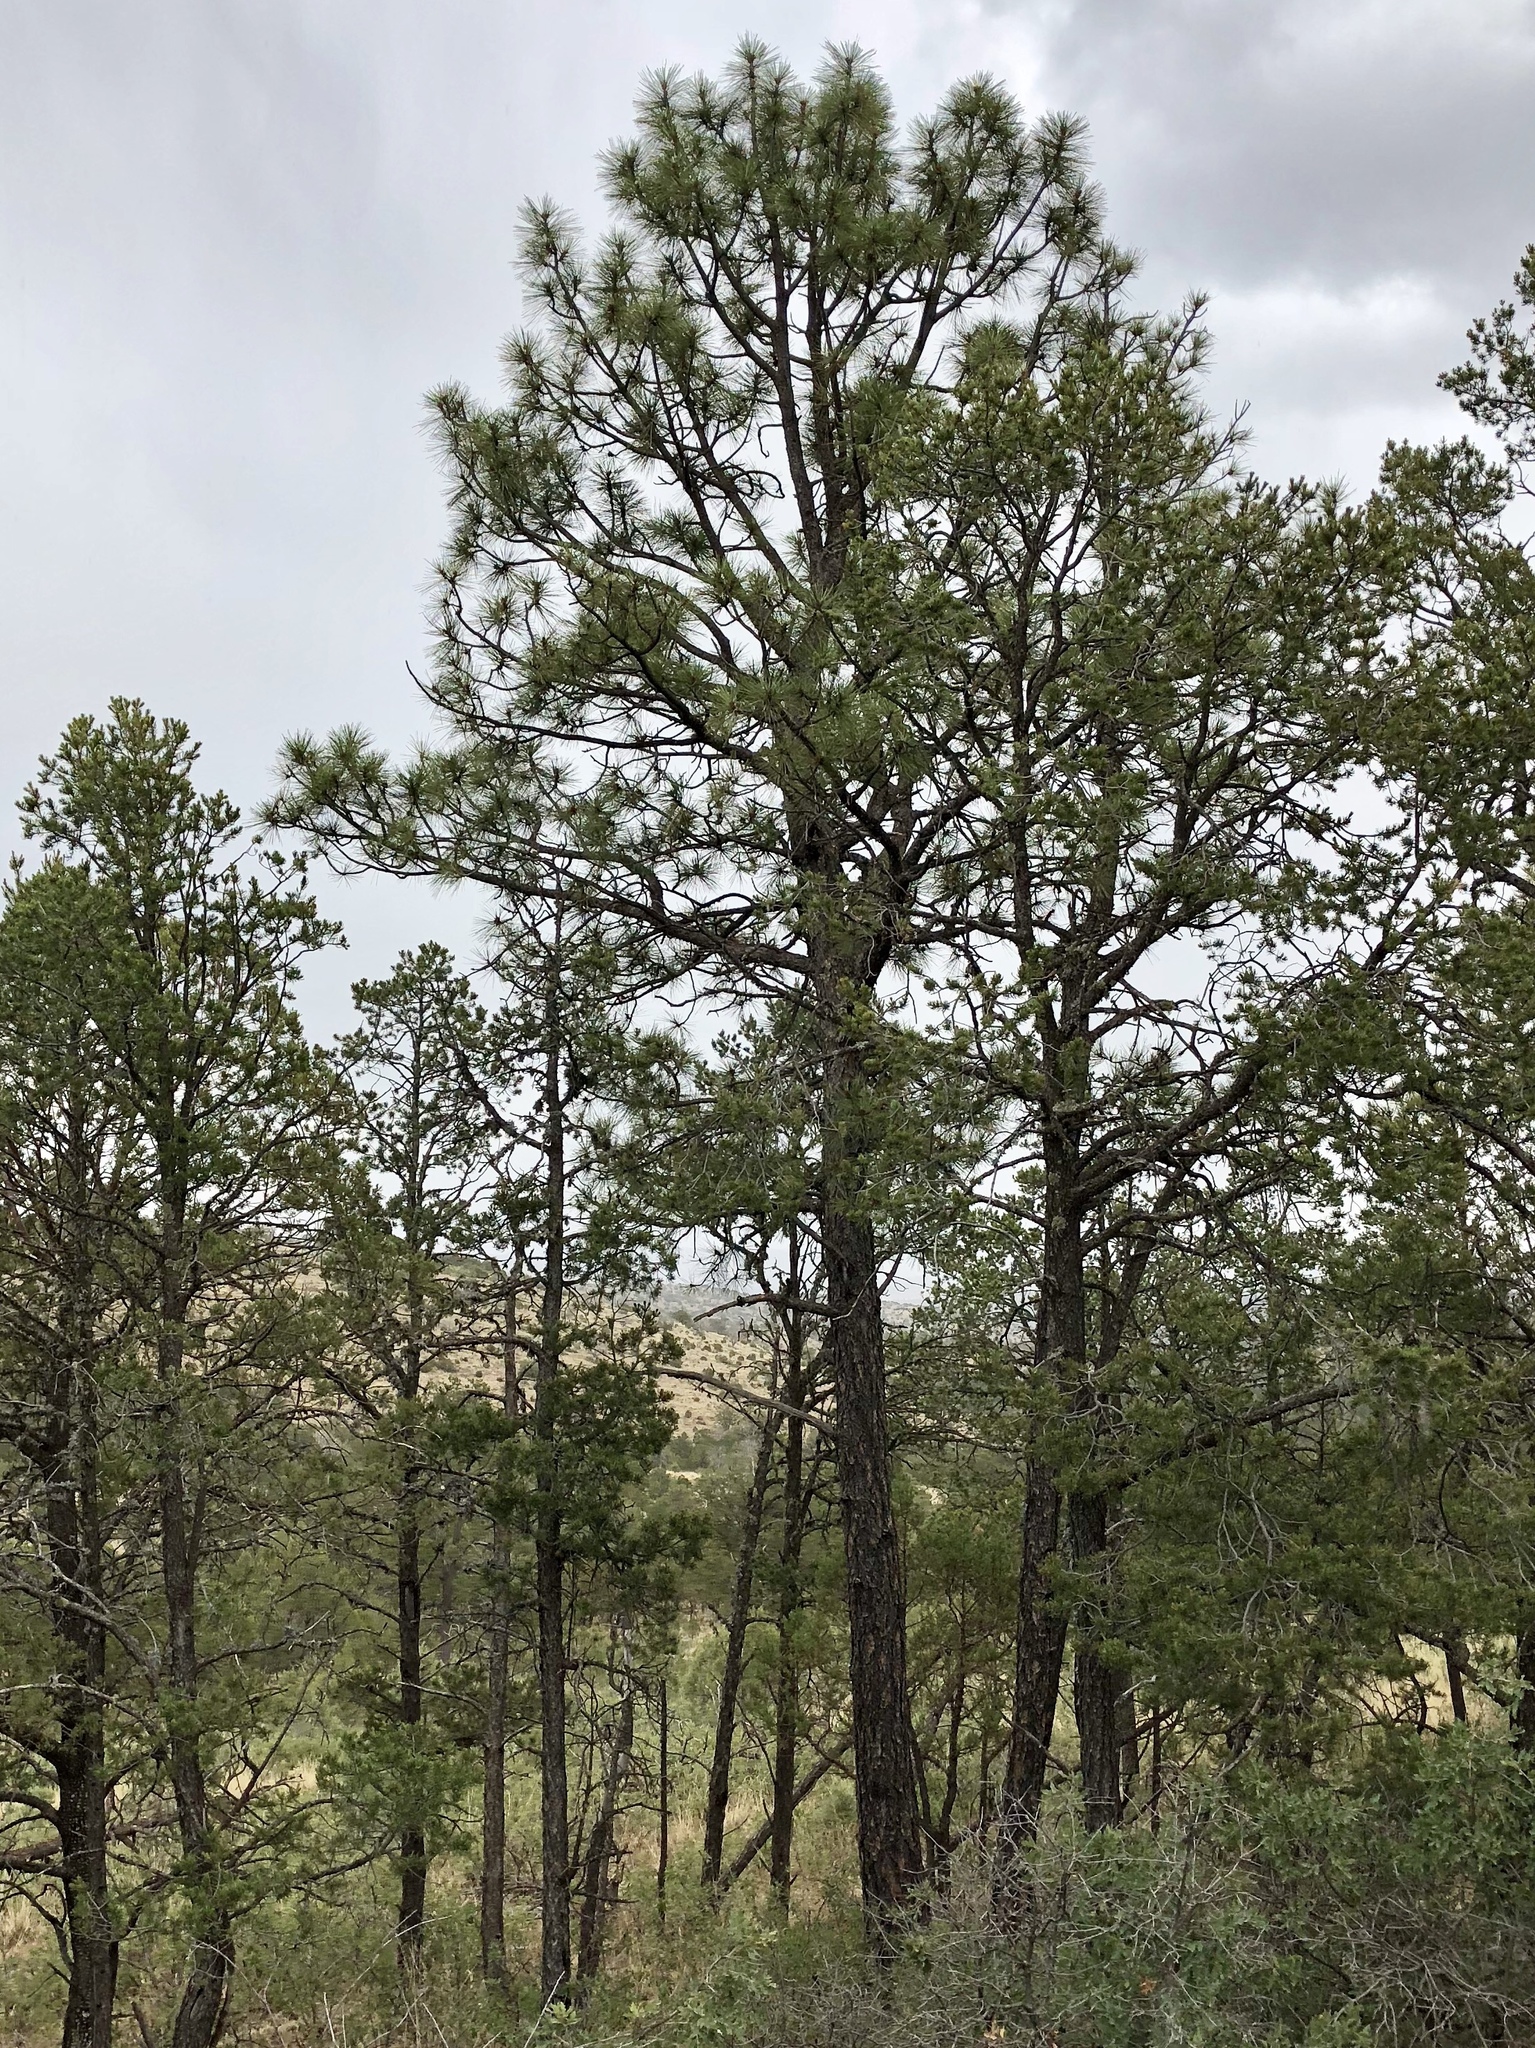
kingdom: Plantae
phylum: Tracheophyta
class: Pinopsida
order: Pinales
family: Pinaceae
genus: Pinus
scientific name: Pinus ponderosa
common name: Western yellow-pine
